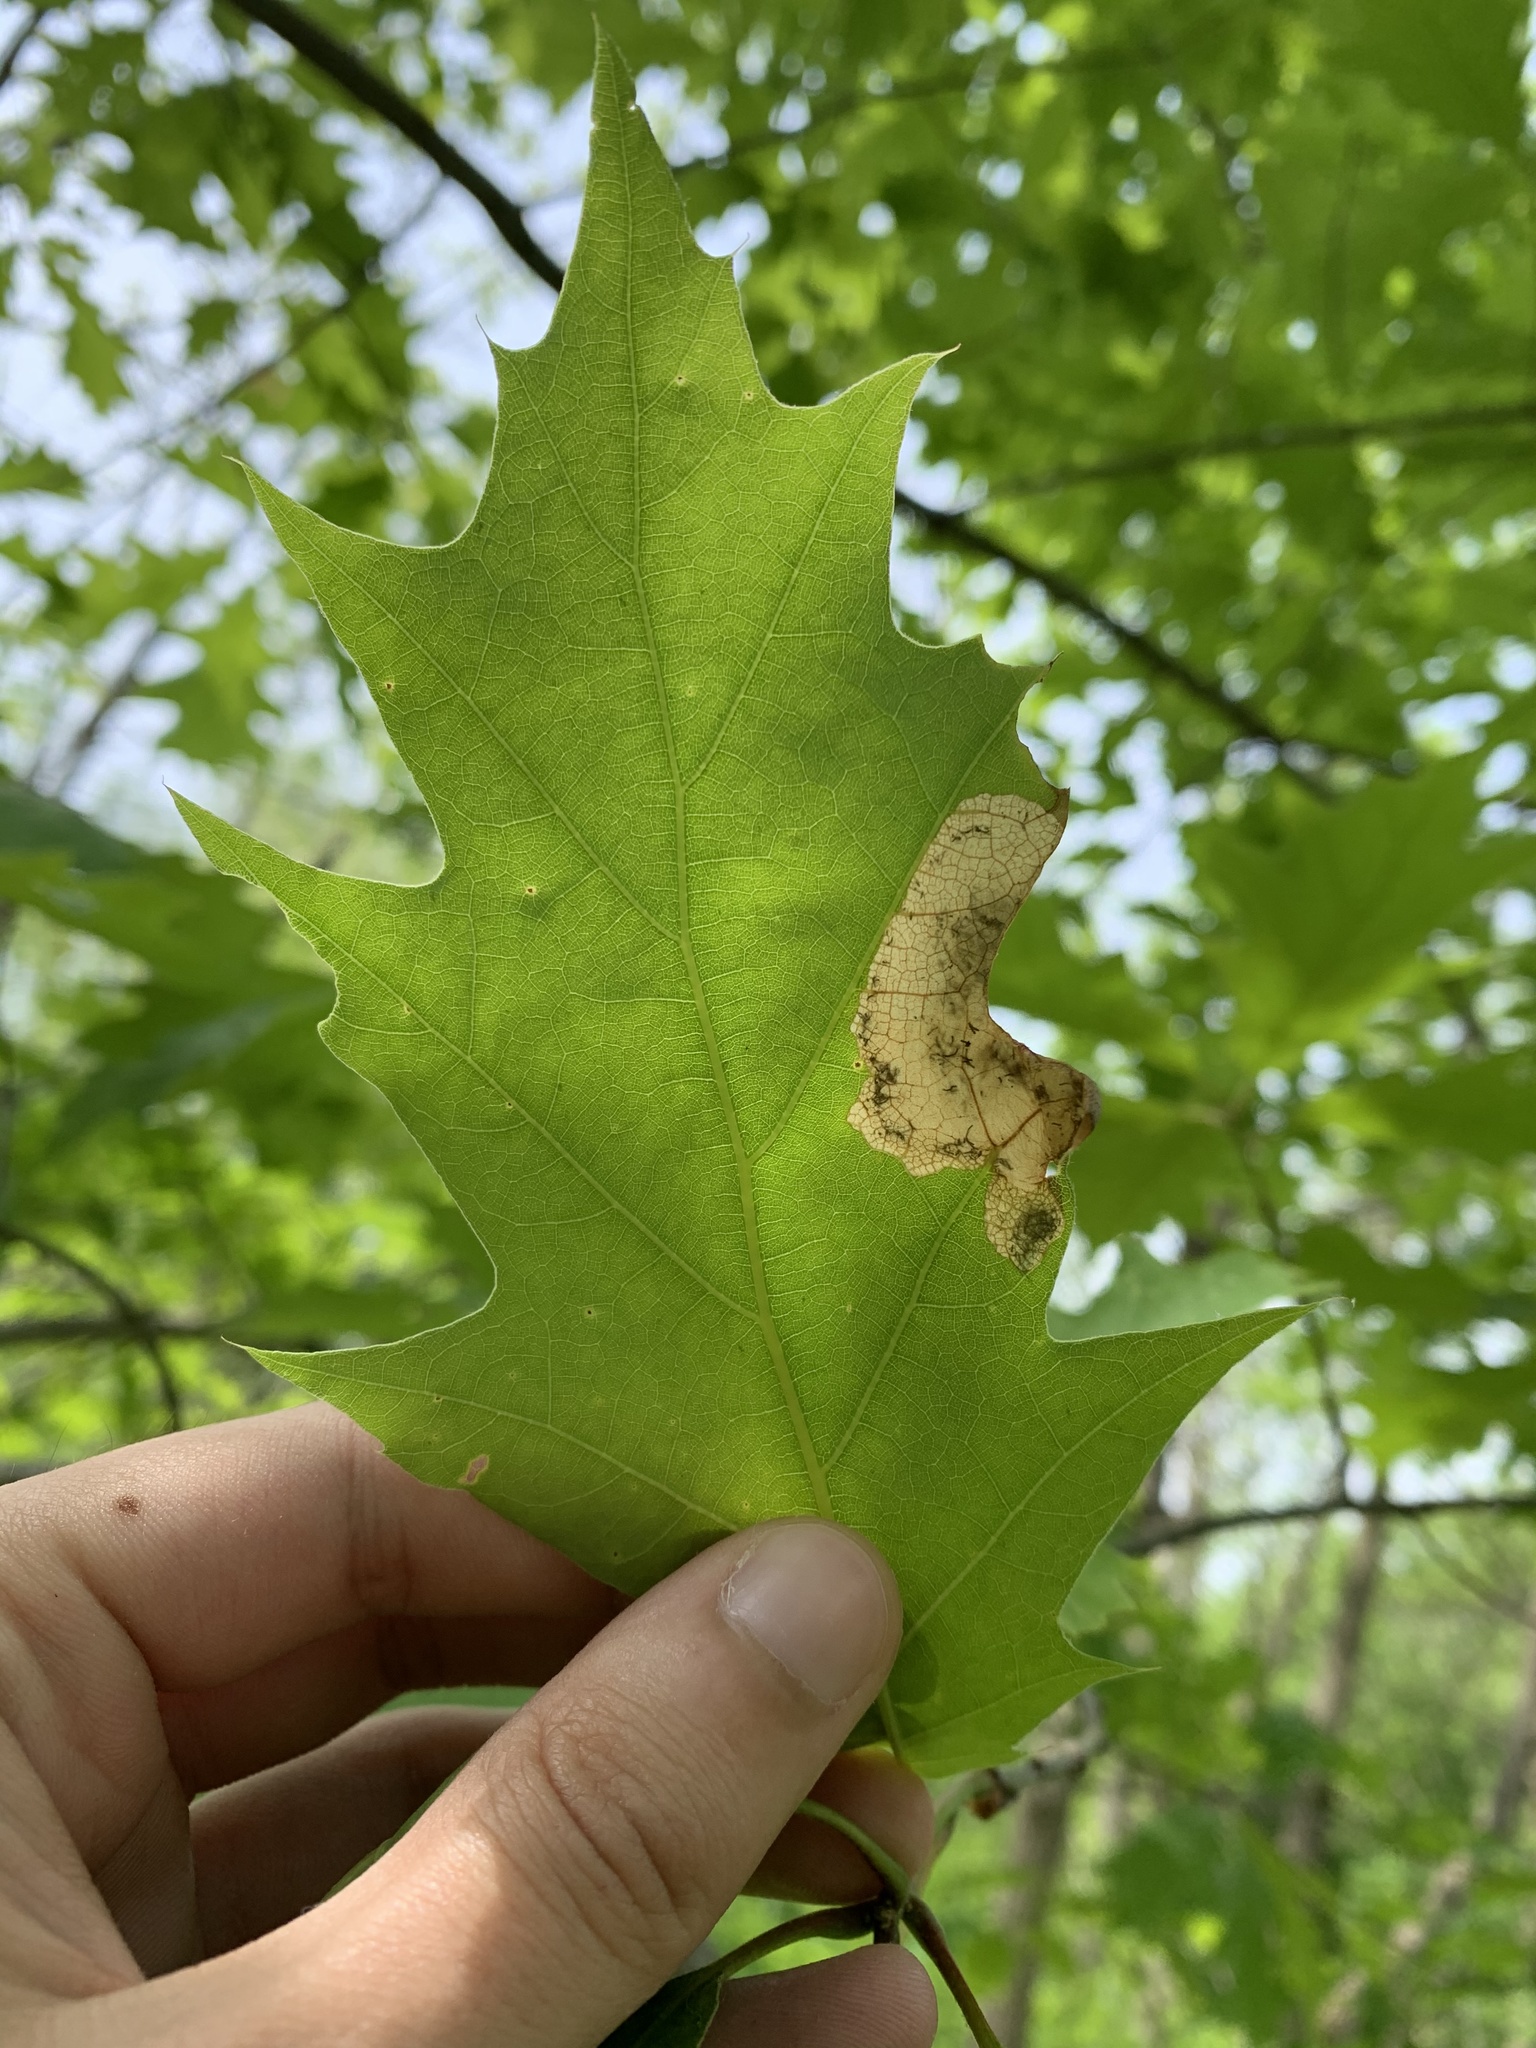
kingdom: Animalia
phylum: Arthropoda
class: Insecta
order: Lepidoptera
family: Eriocraniidae
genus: Dyseriocrania
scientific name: Dyseriocrania griseocapitella
